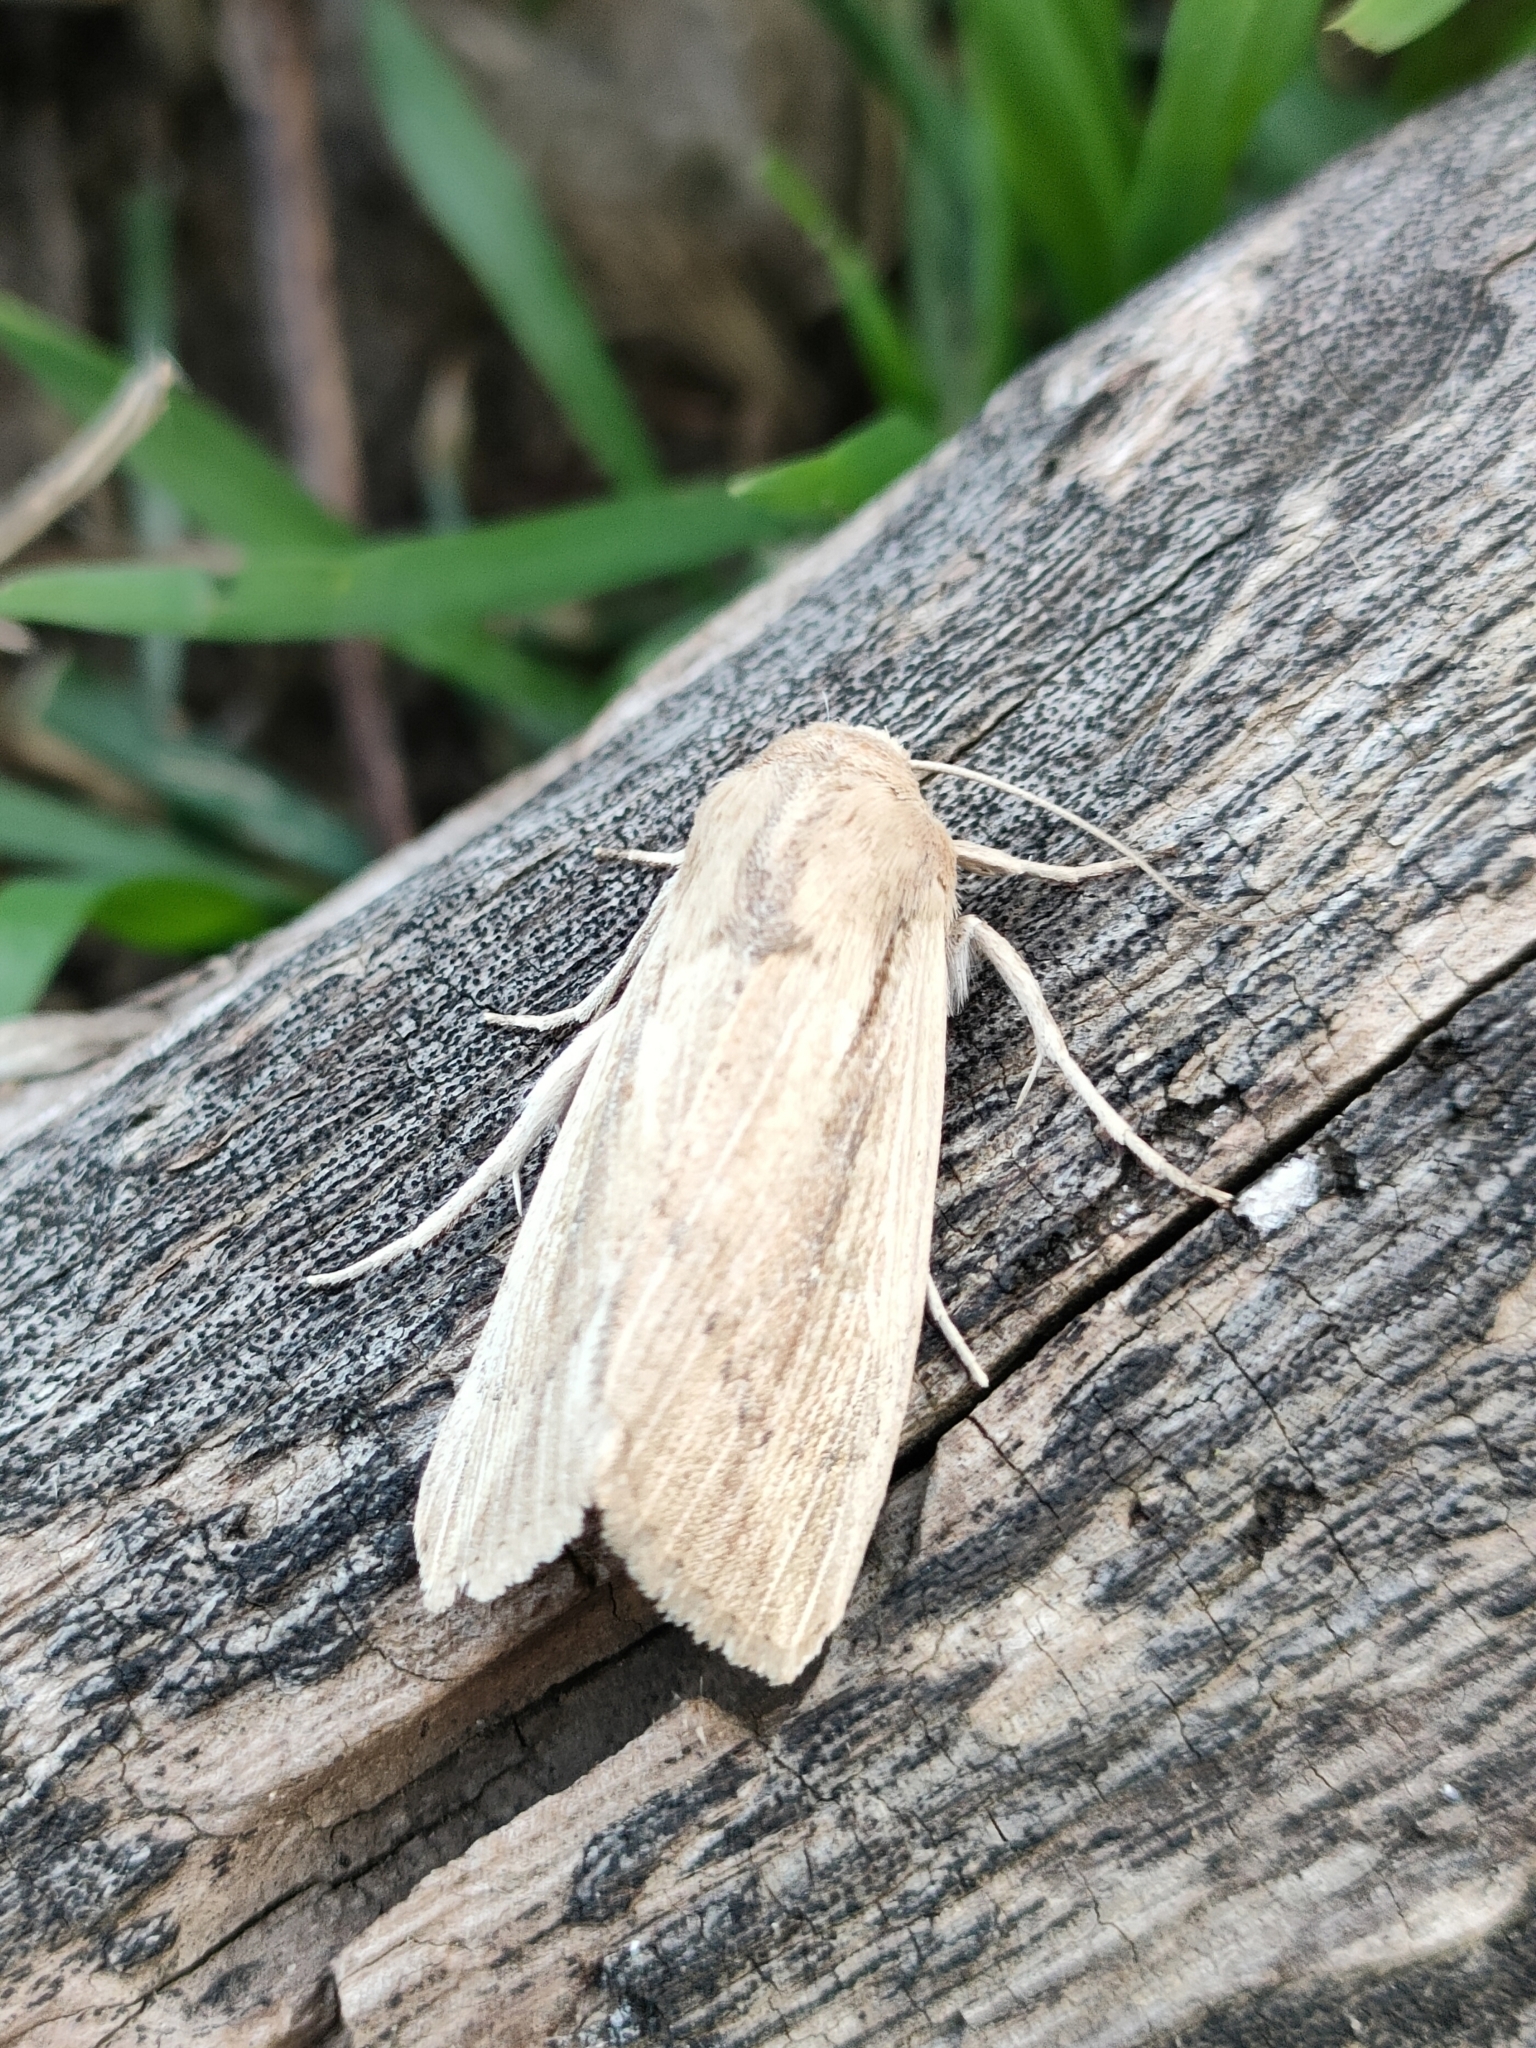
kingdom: Animalia
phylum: Arthropoda
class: Insecta
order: Lepidoptera
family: Noctuidae
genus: Leucania
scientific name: Leucania loreyi
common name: The cosmopolitan
